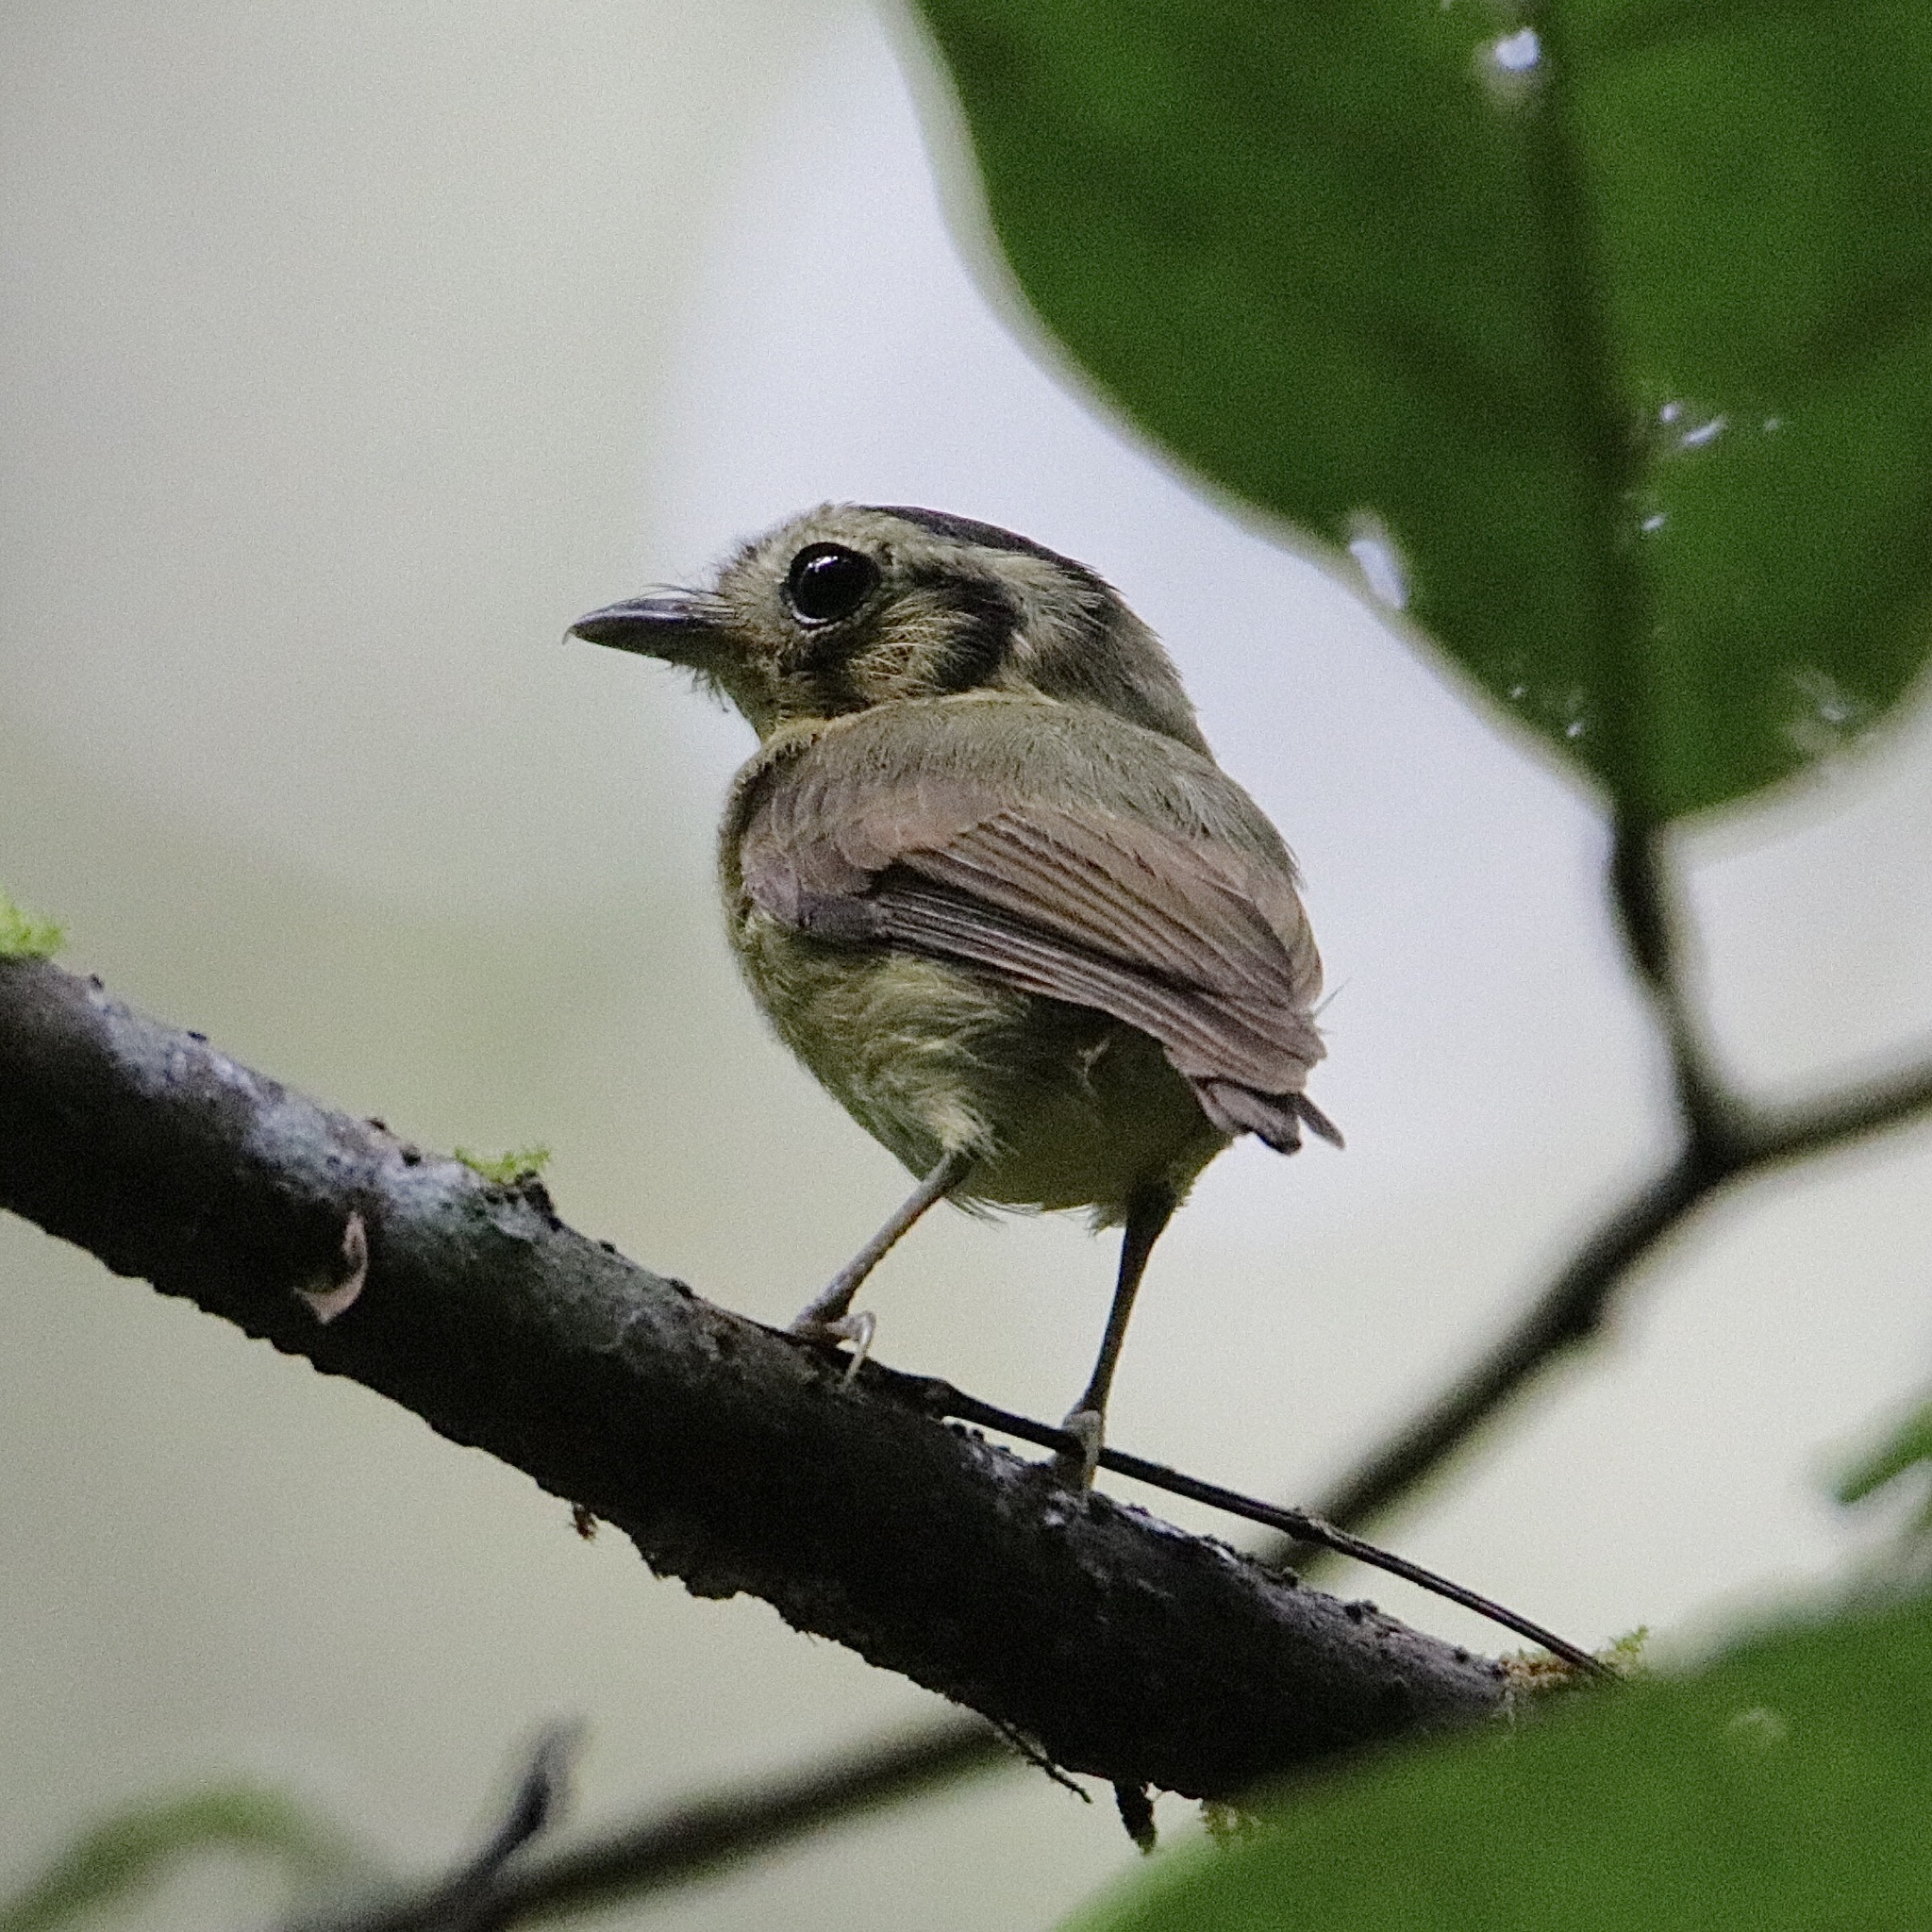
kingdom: Animalia
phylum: Chordata
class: Aves
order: Passeriformes
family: Tyrannidae
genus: Platyrinchus
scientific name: Platyrinchus coronatus
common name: Golden-crowned spadebill
